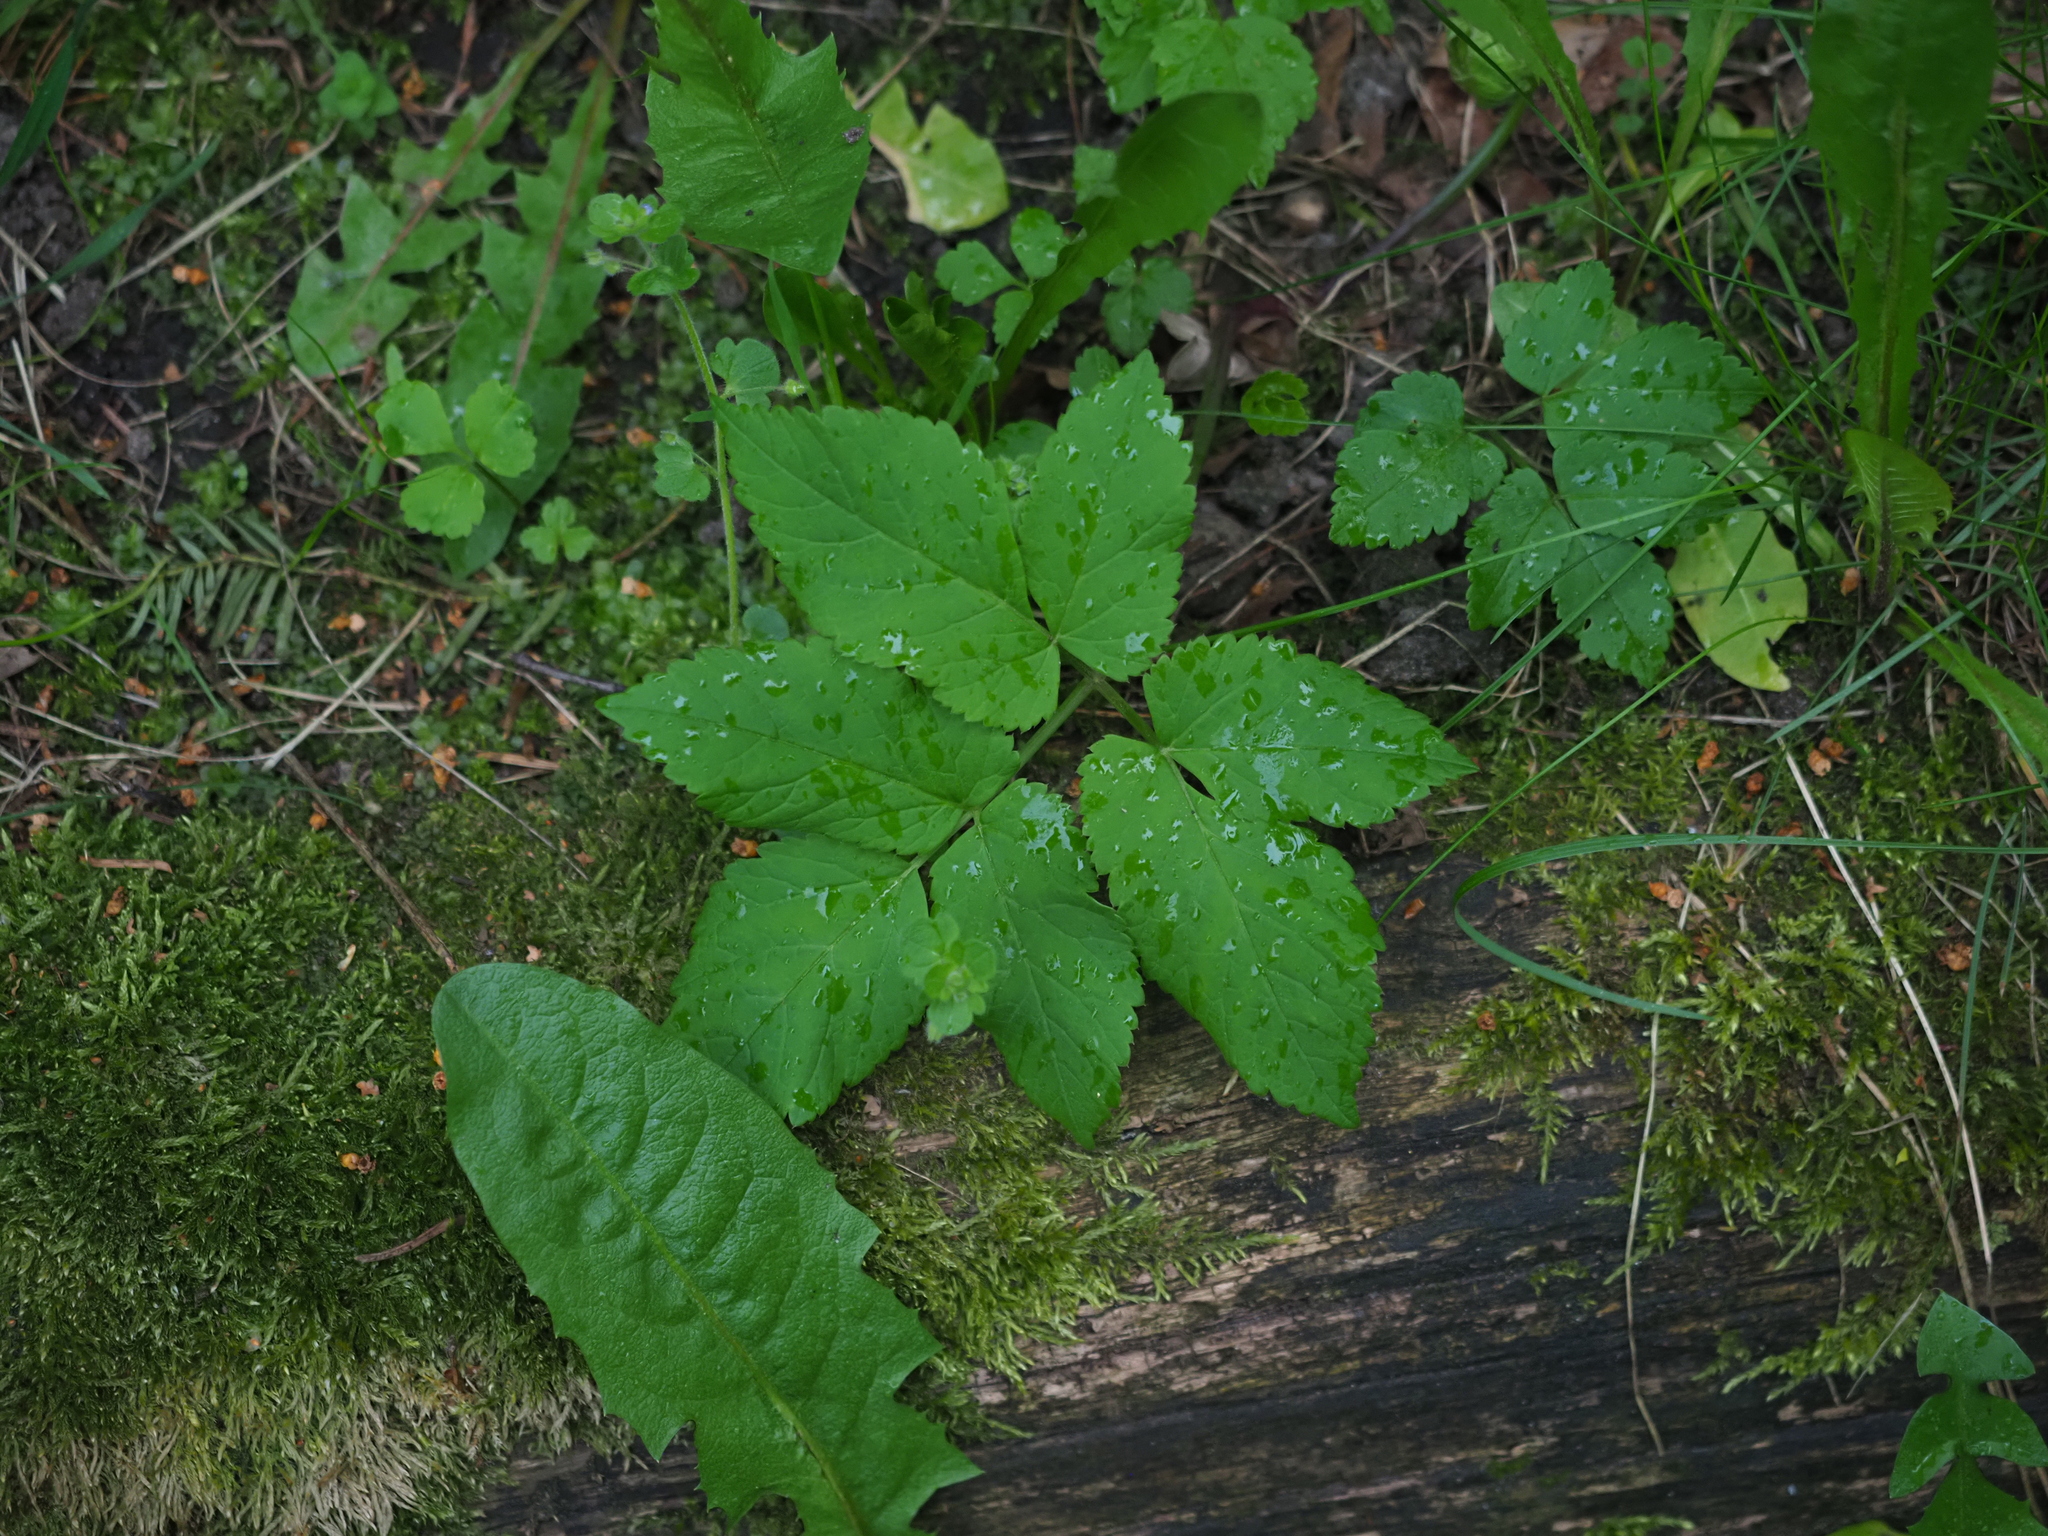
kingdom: Plantae
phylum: Tracheophyta
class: Magnoliopsida
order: Apiales
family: Apiaceae
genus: Aegopodium
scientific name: Aegopodium podagraria
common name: Ground-elder
